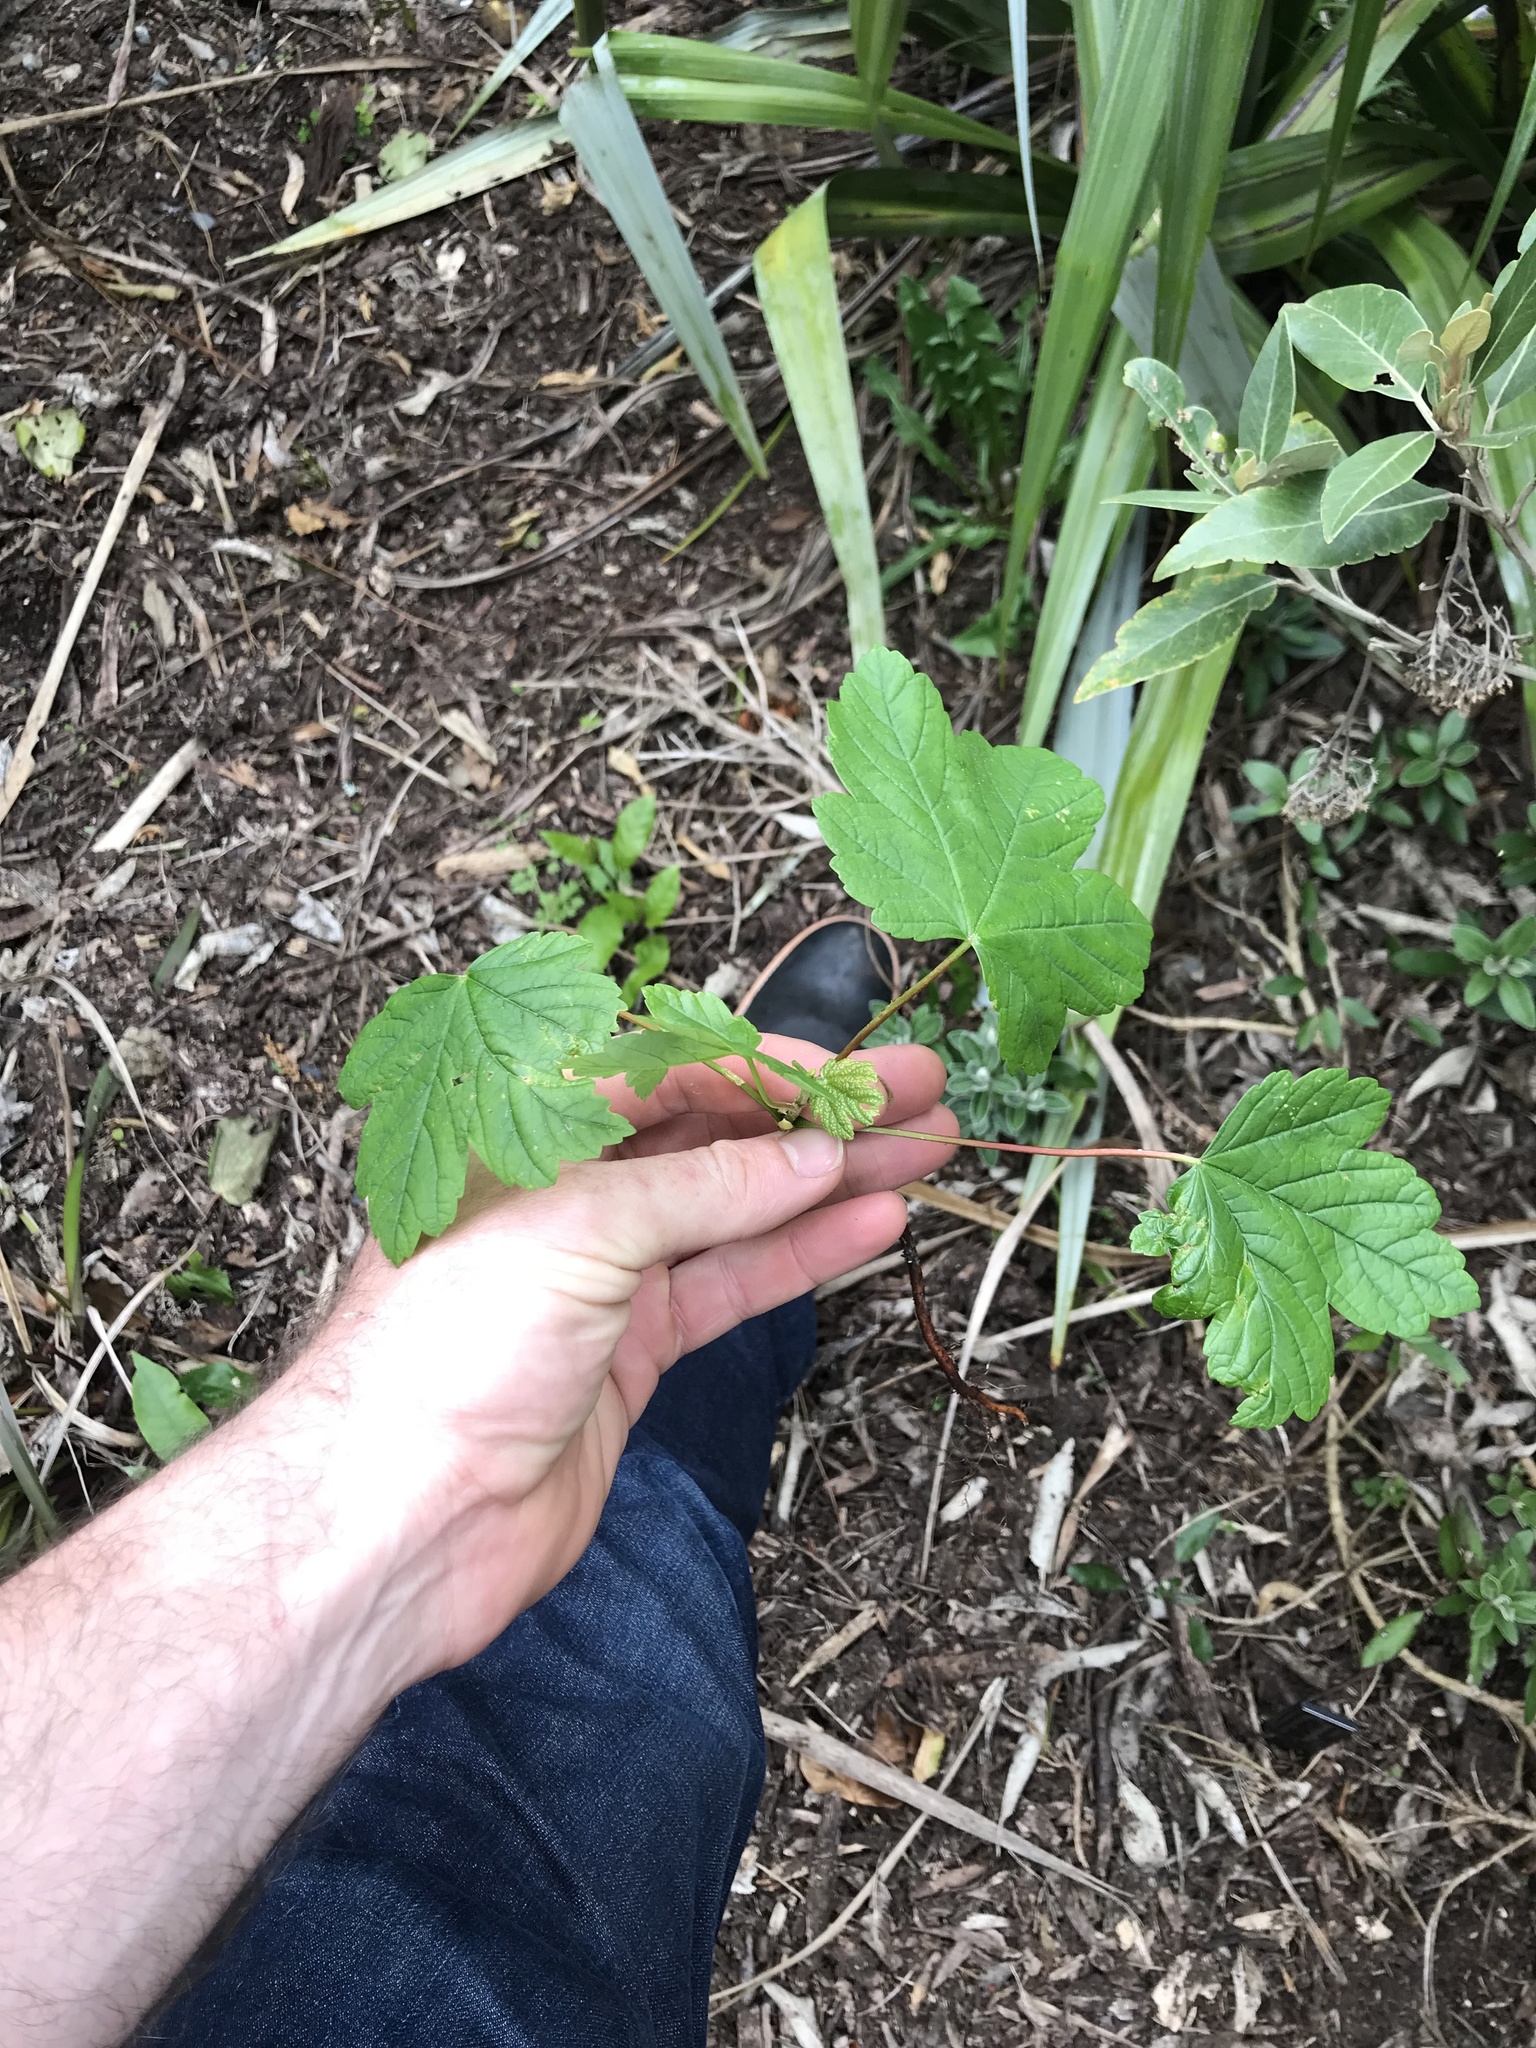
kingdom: Plantae
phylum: Tracheophyta
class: Magnoliopsida
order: Sapindales
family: Sapindaceae
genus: Acer
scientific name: Acer pseudoplatanus
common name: Sycamore
